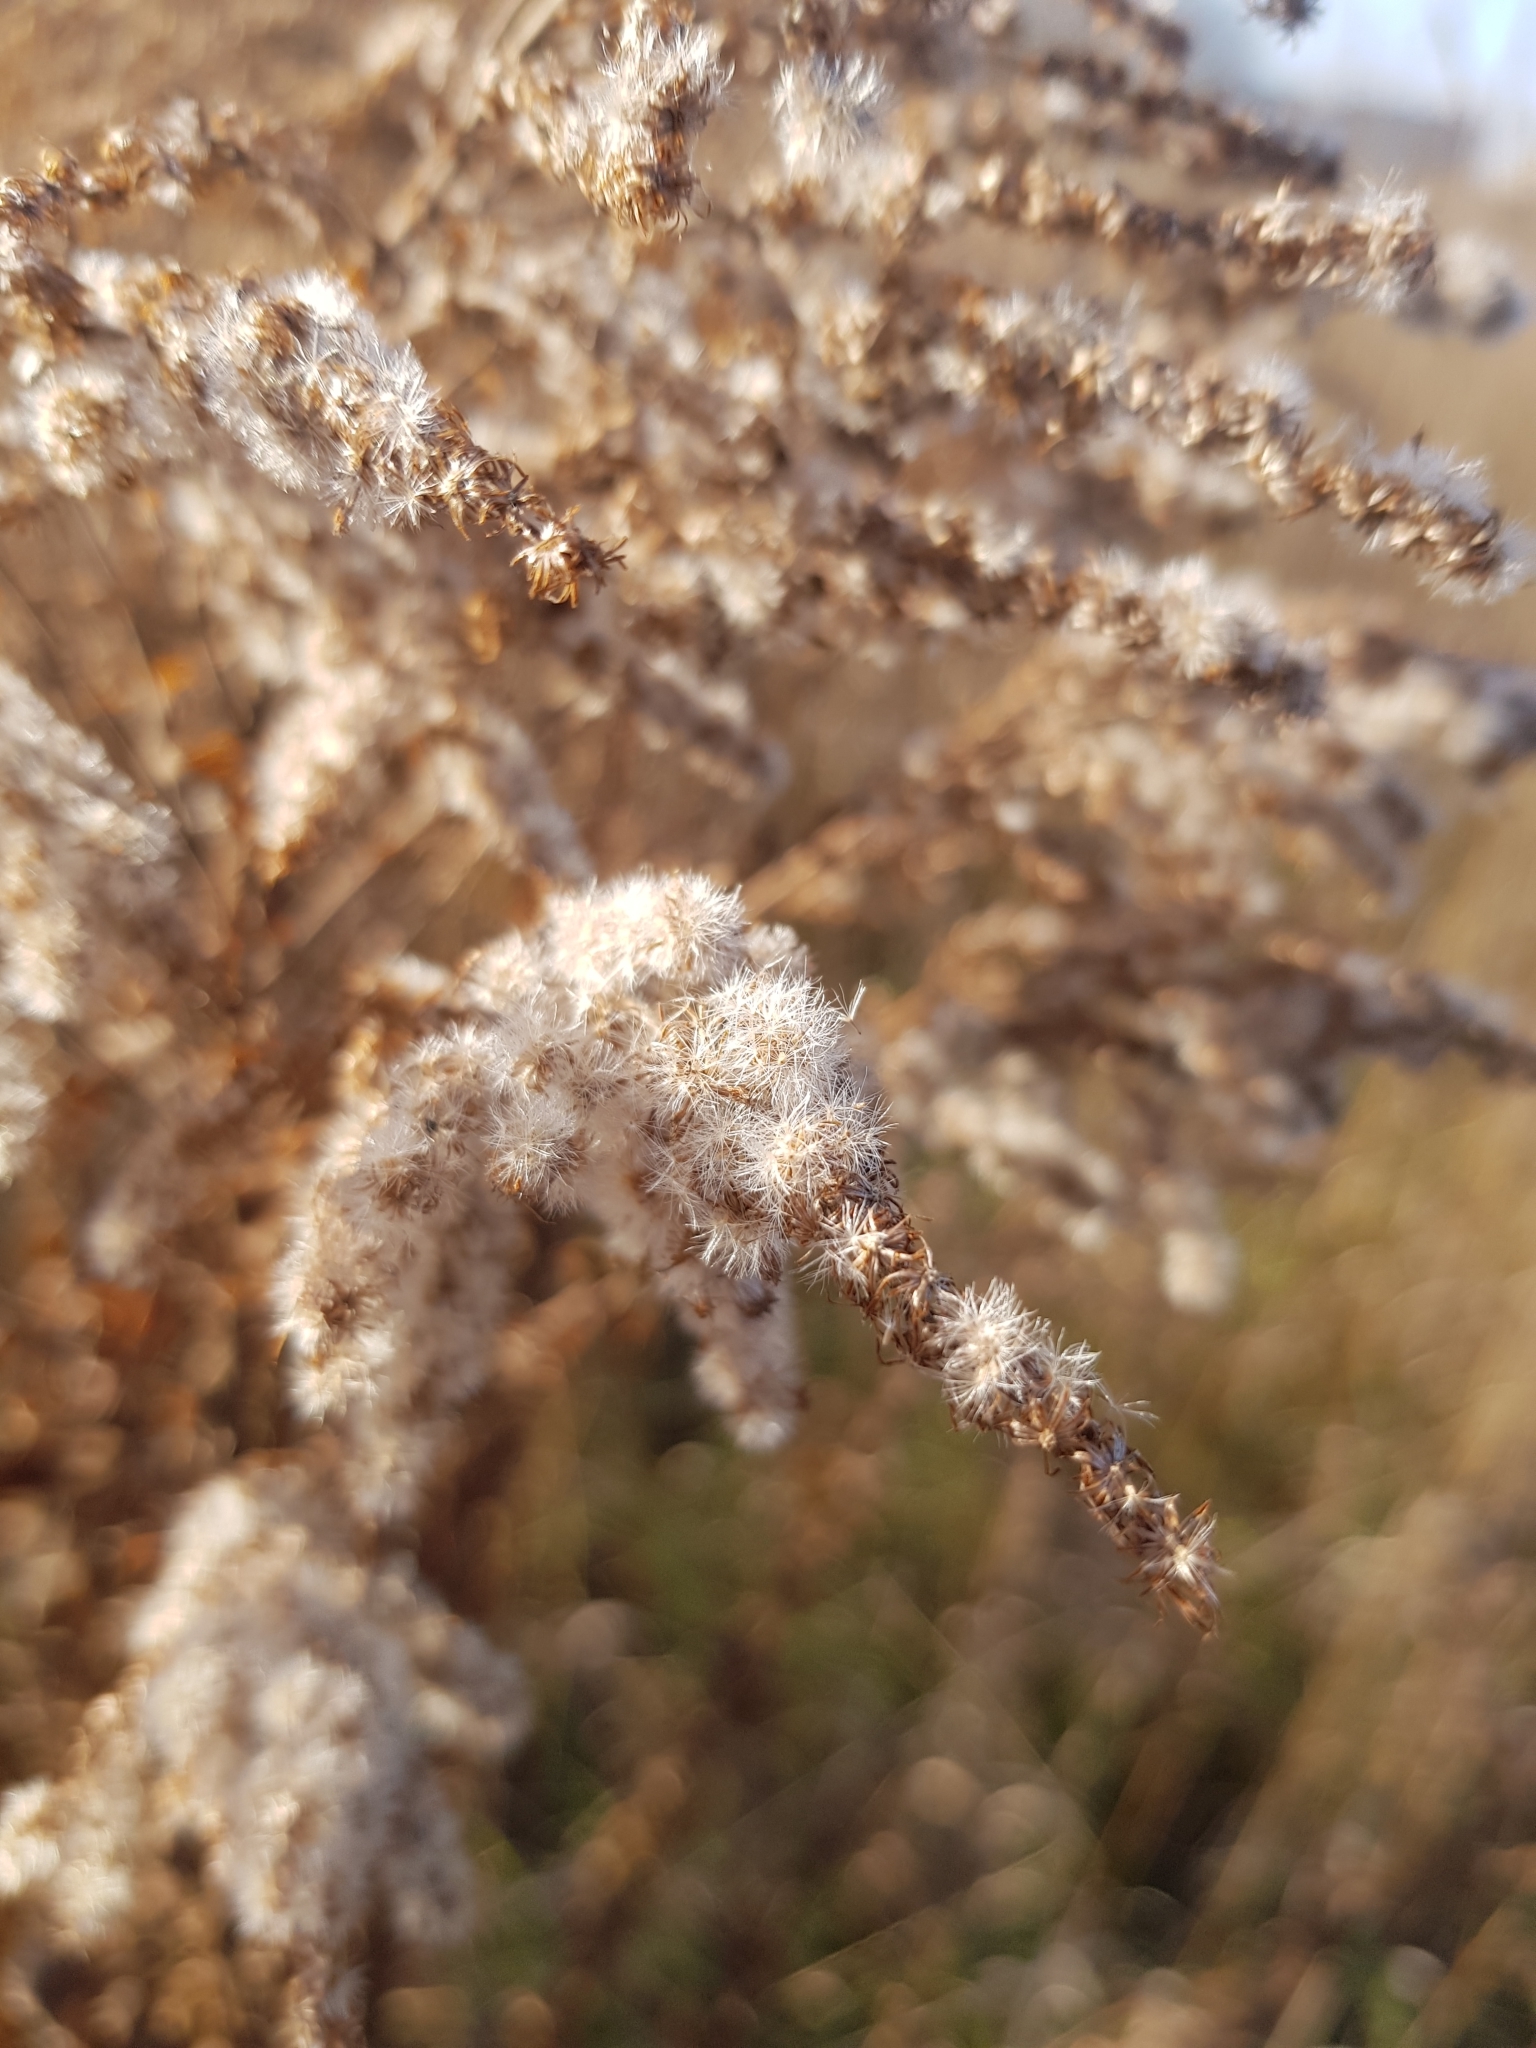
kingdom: Plantae
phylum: Tracheophyta
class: Magnoliopsida
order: Asterales
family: Asteraceae
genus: Solidago
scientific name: Solidago canadensis
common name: Canada goldenrod
